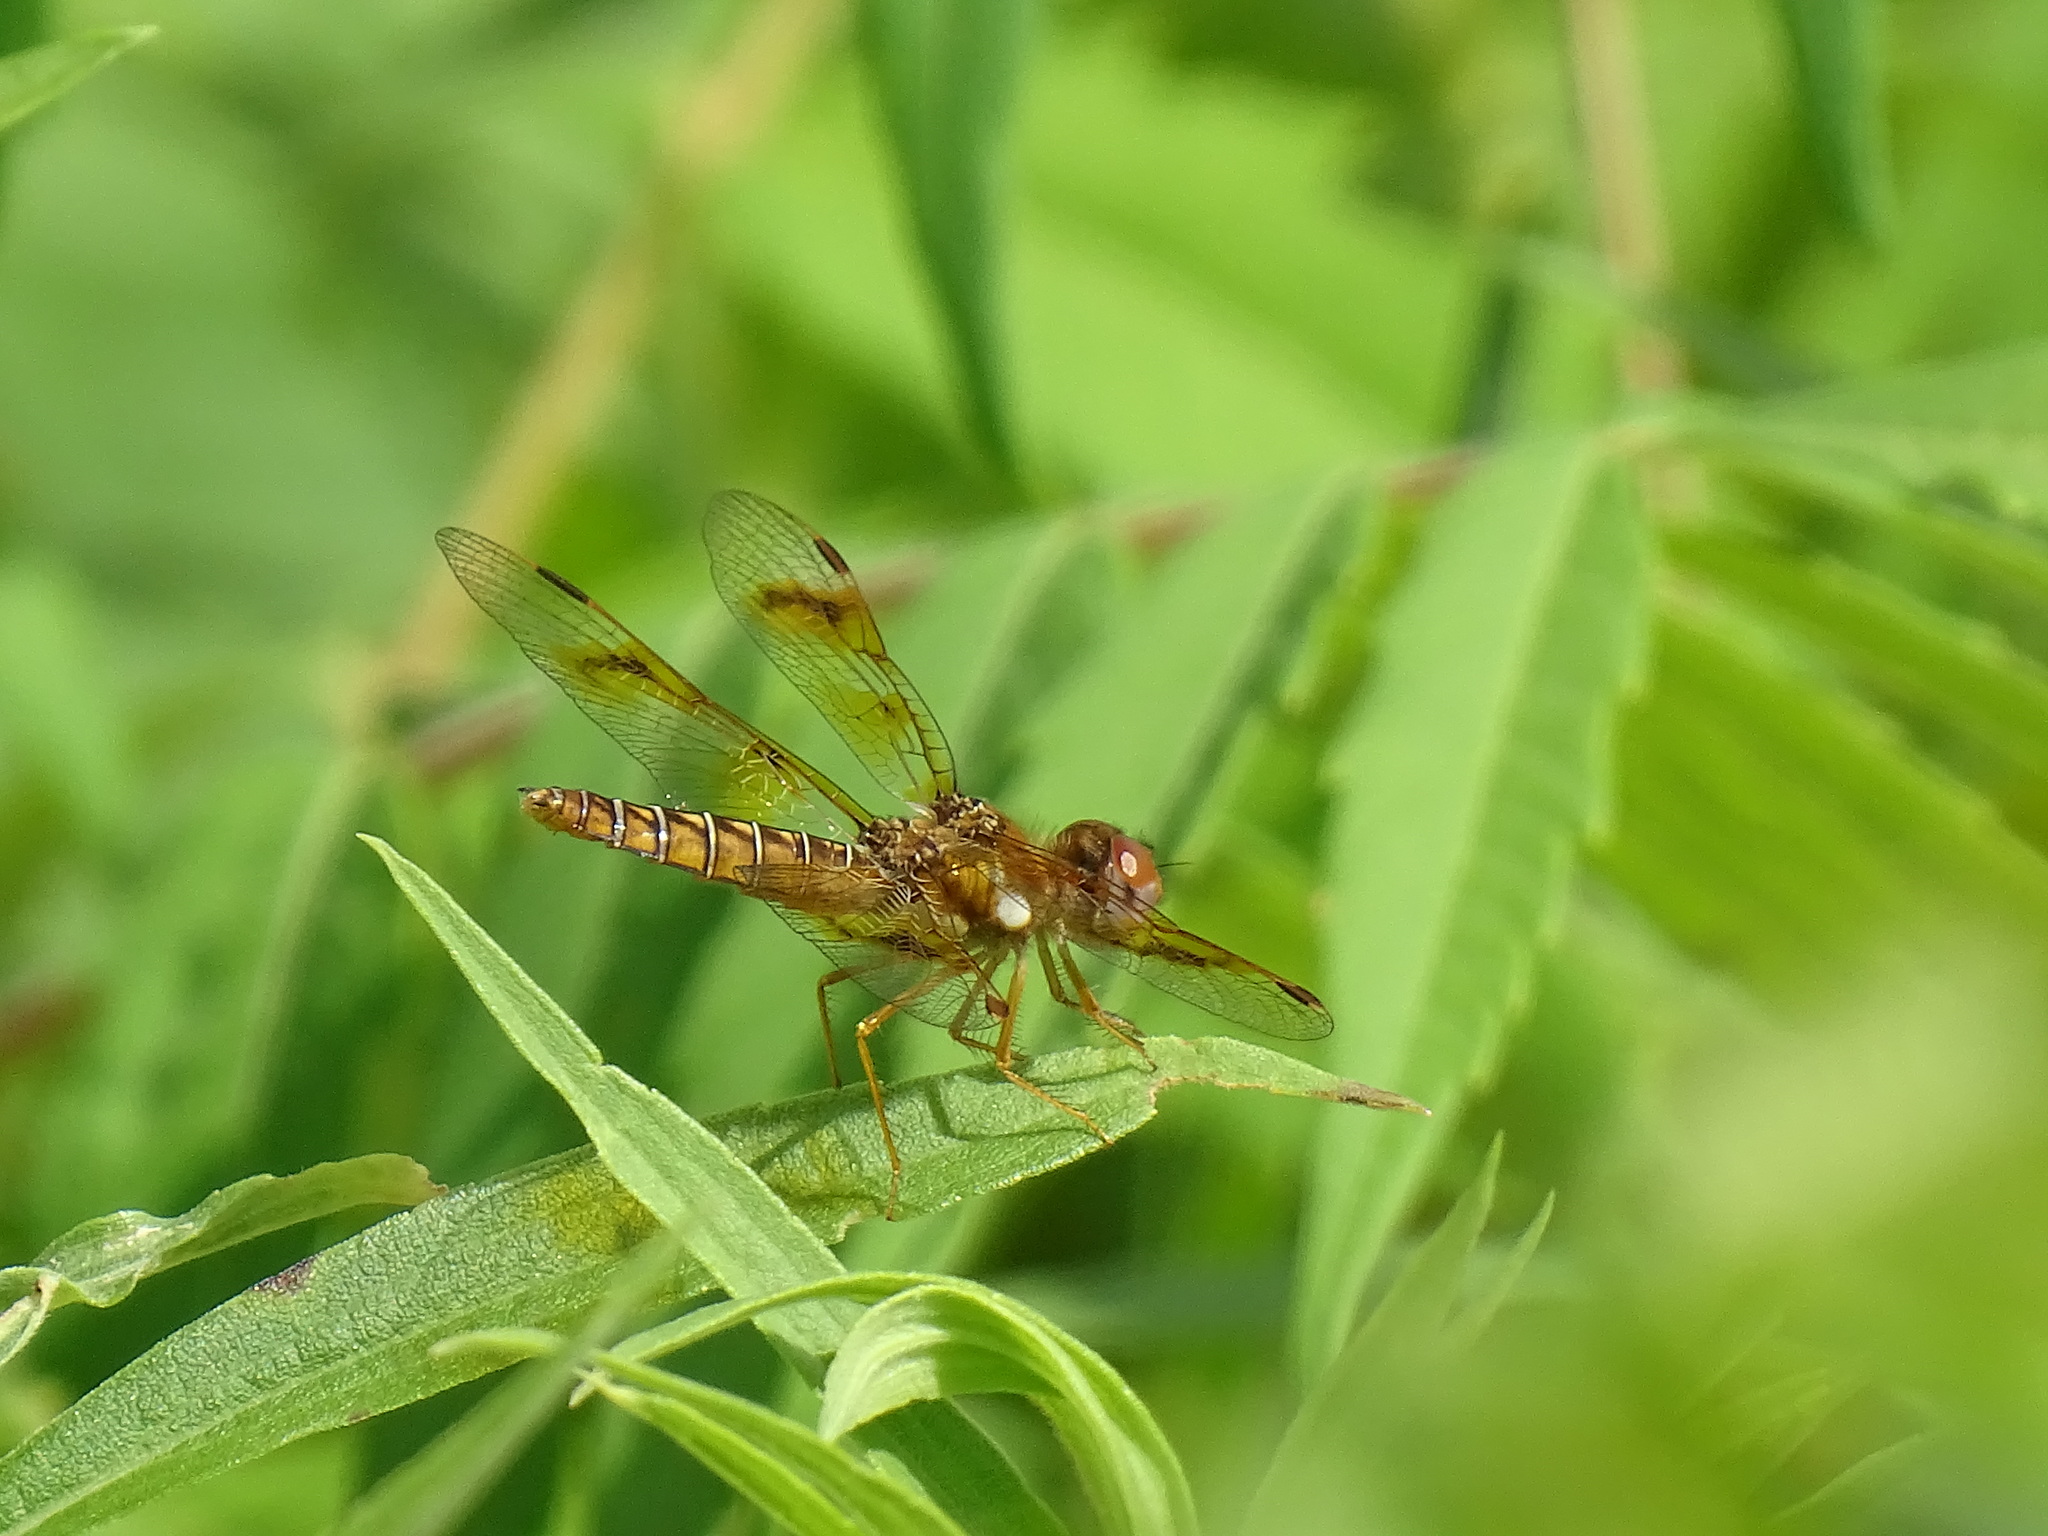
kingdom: Animalia
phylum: Arthropoda
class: Insecta
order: Odonata
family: Libellulidae
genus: Perithemis
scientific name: Perithemis tenera
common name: Eastern amberwing
